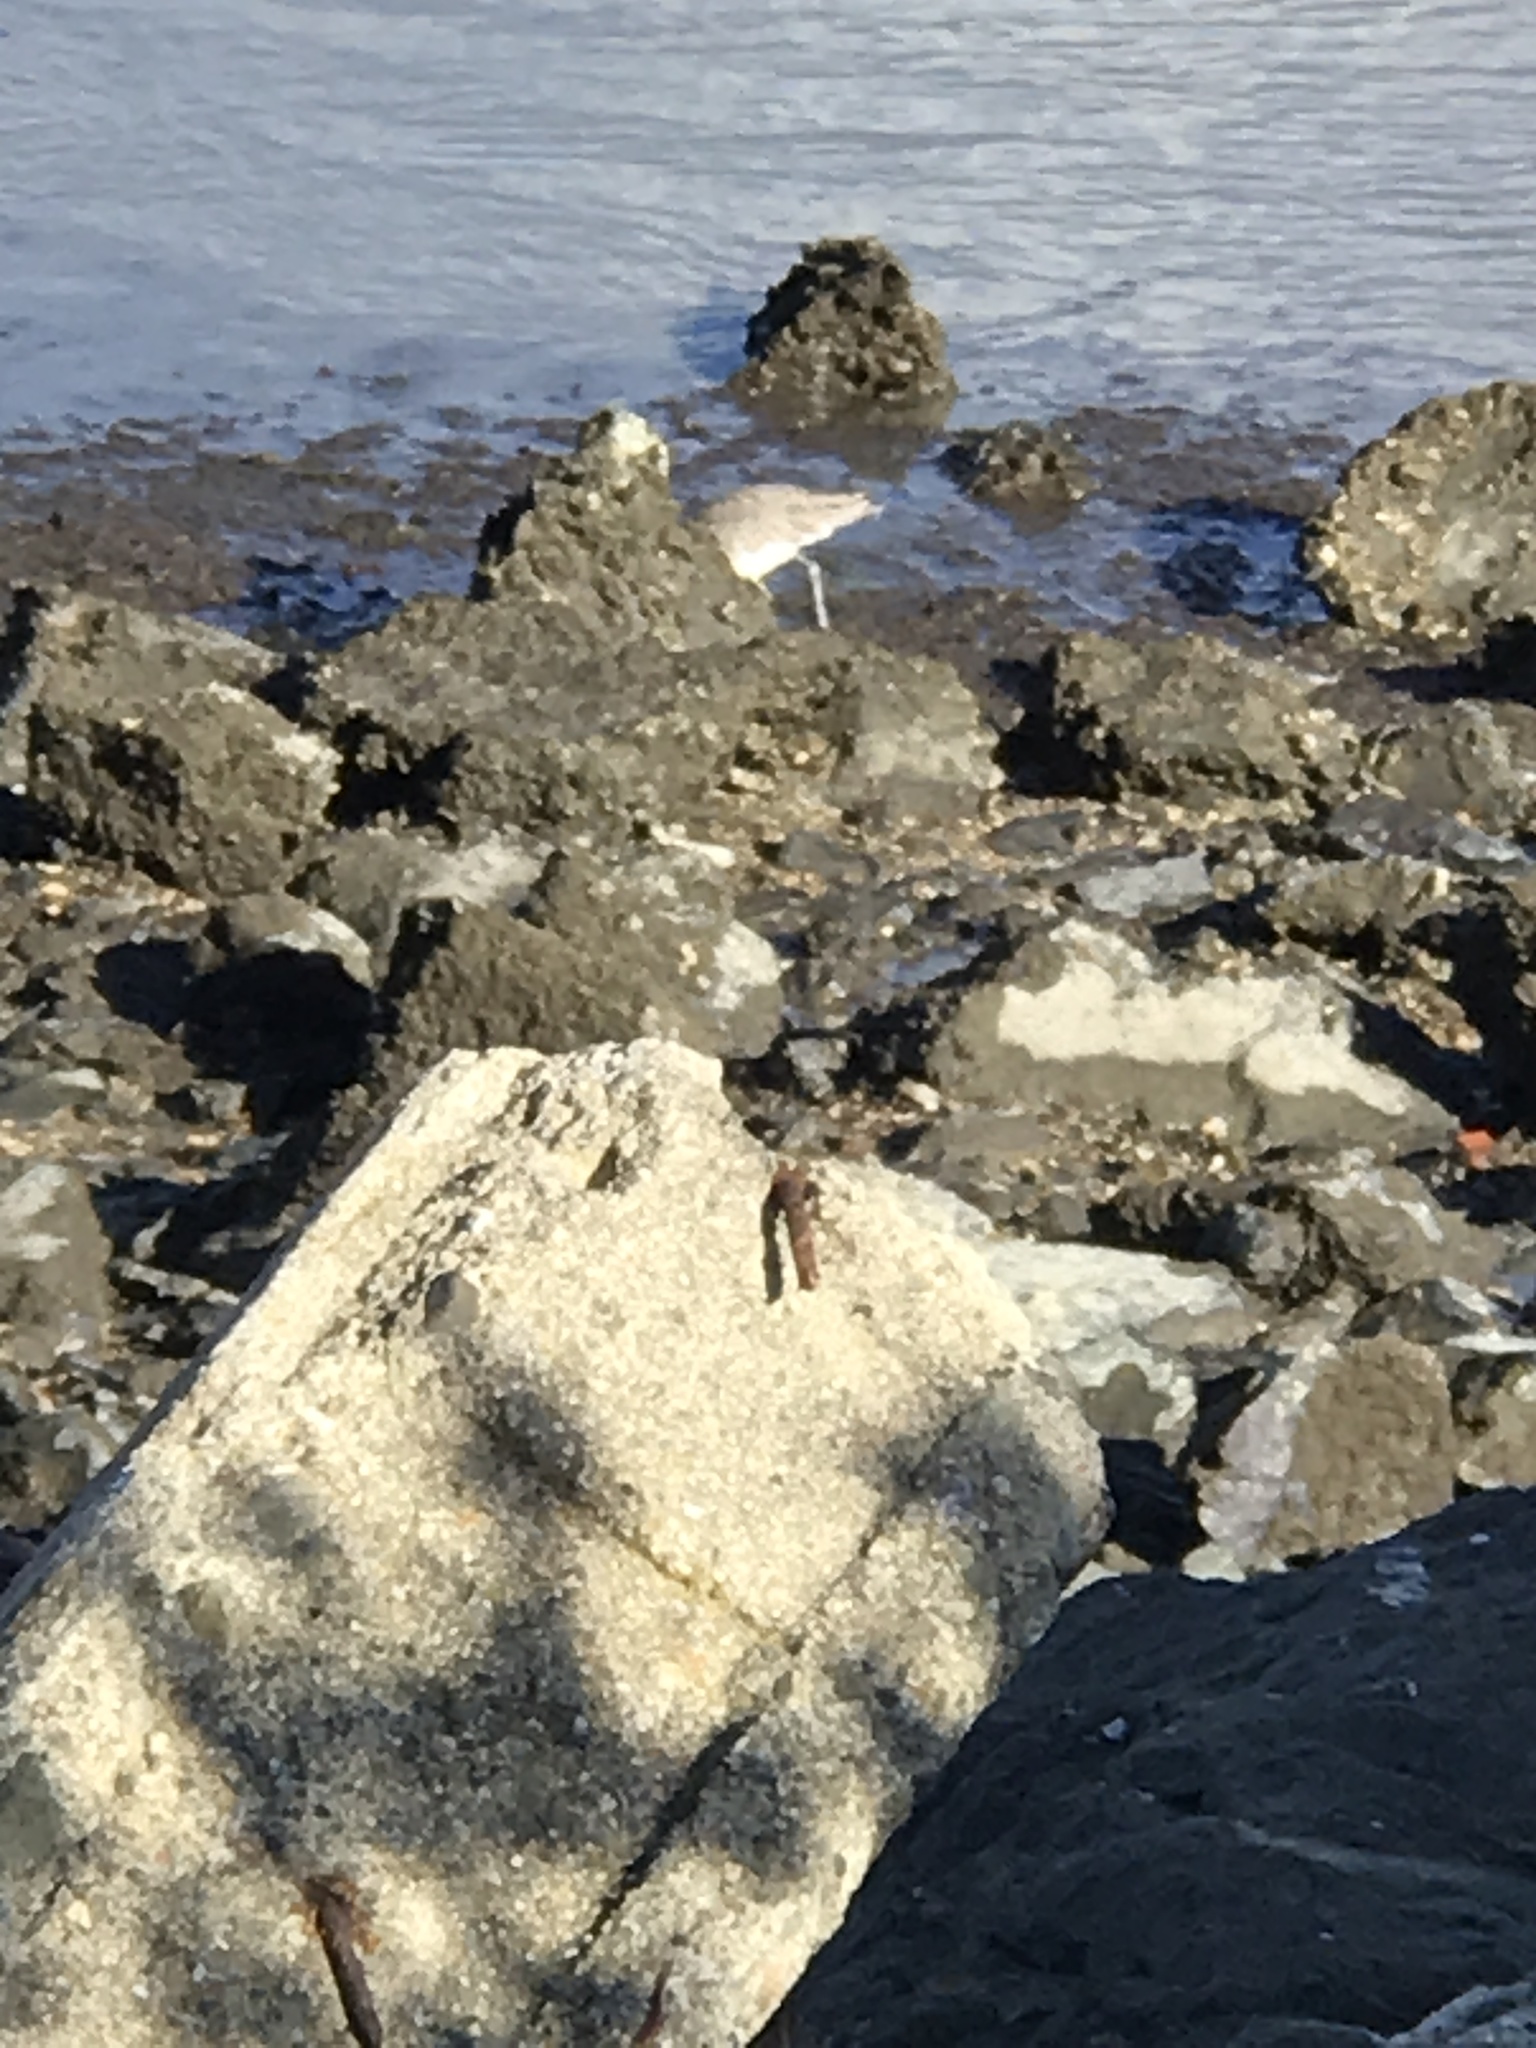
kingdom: Animalia
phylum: Chordata
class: Aves
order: Charadriiformes
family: Scolopacidae
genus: Tringa
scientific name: Tringa semipalmata
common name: Willet
